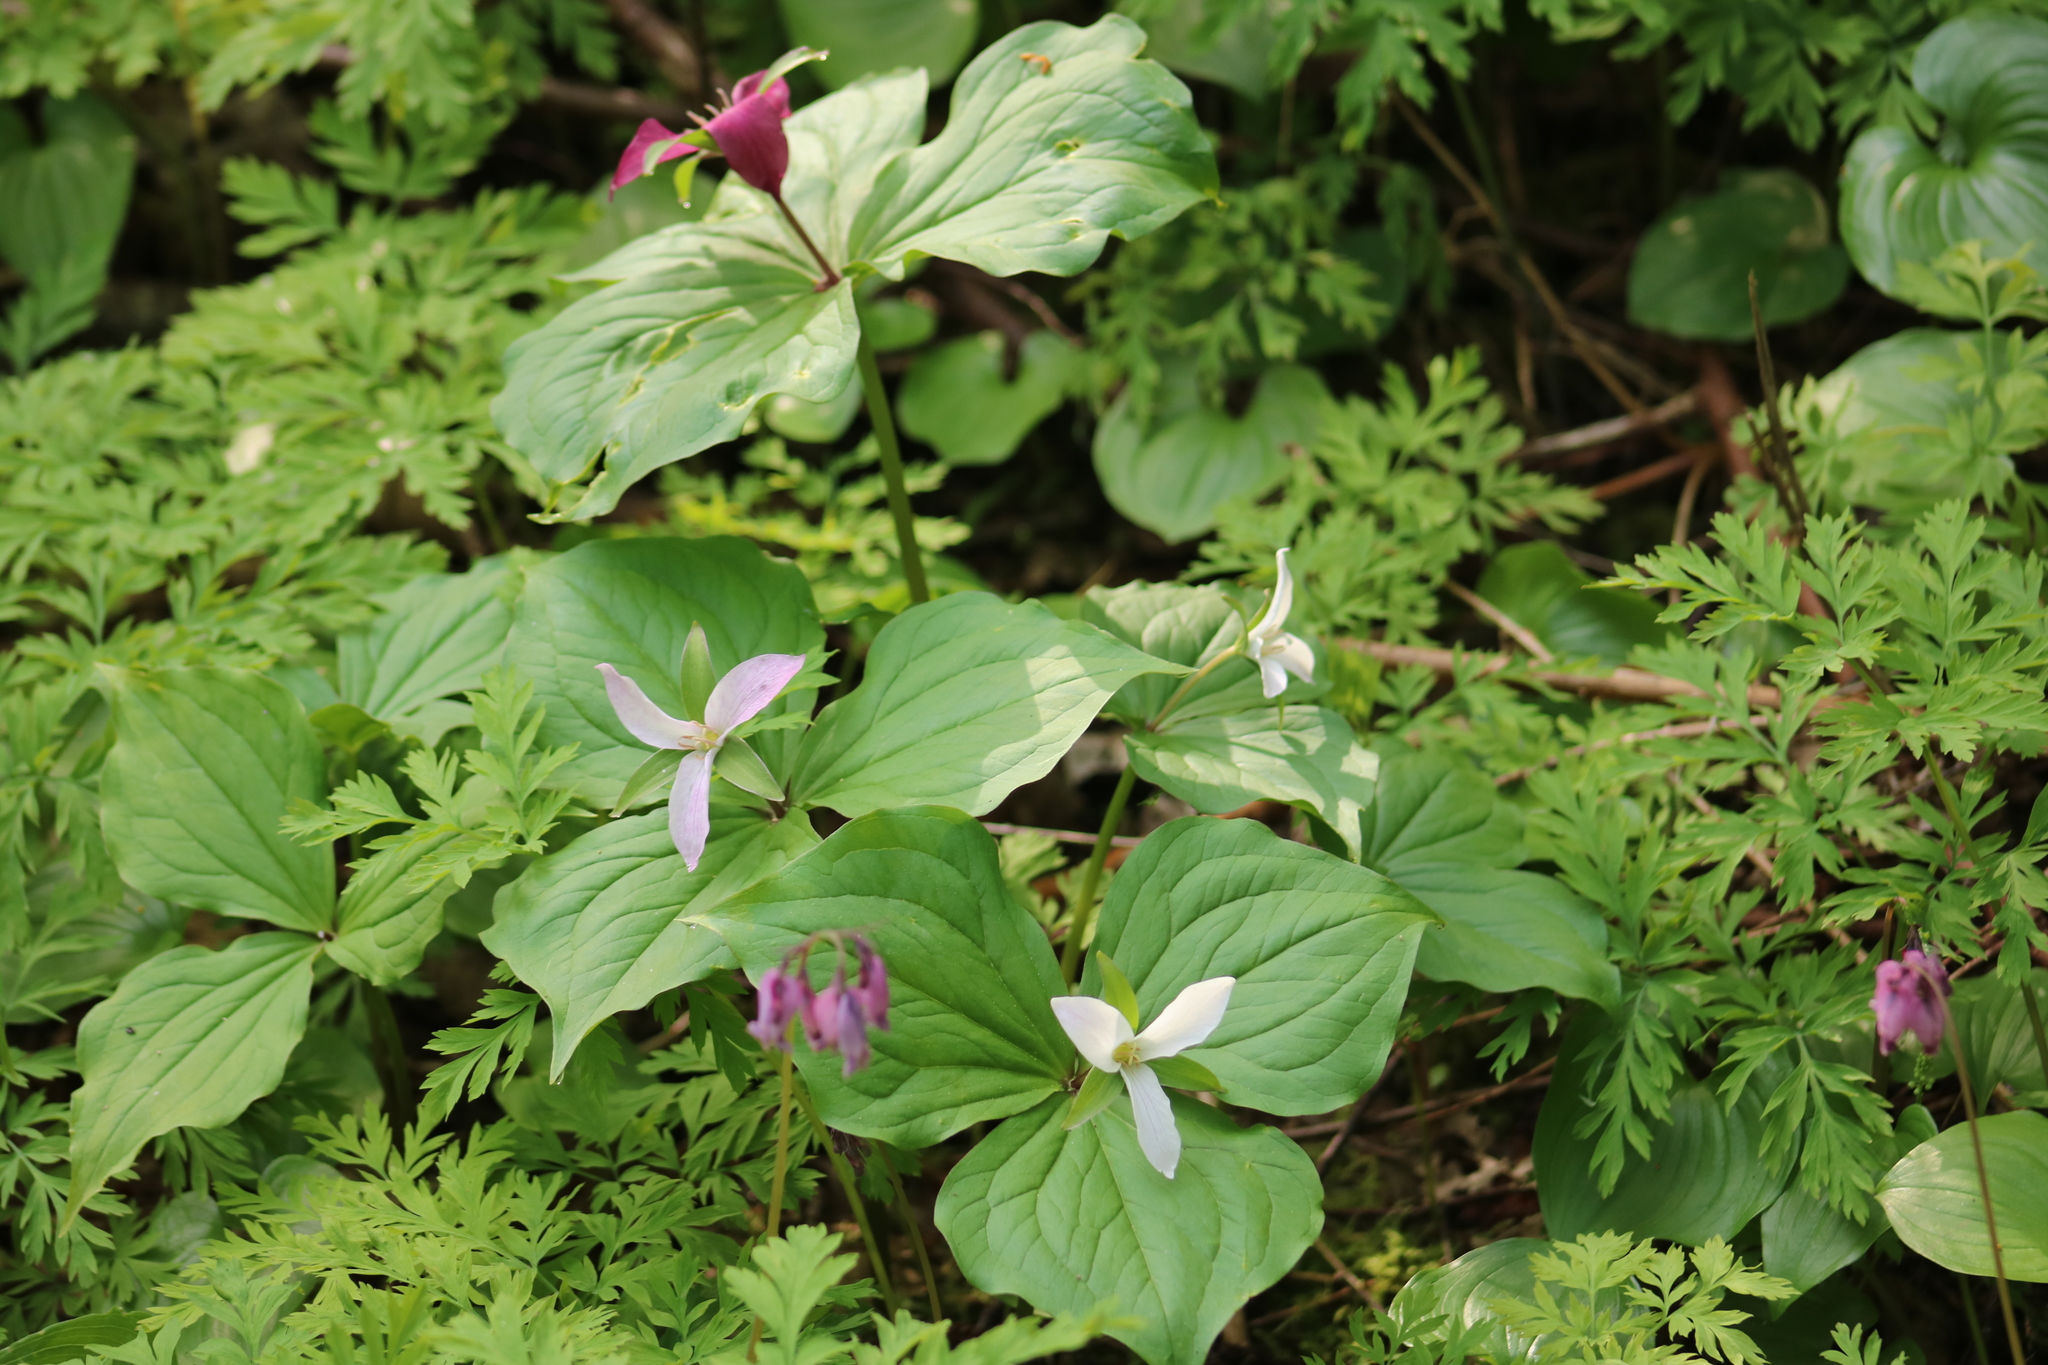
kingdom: Plantae
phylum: Tracheophyta
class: Liliopsida
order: Liliales
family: Melanthiaceae
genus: Trillium
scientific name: Trillium ovatum
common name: Pacific trillium
